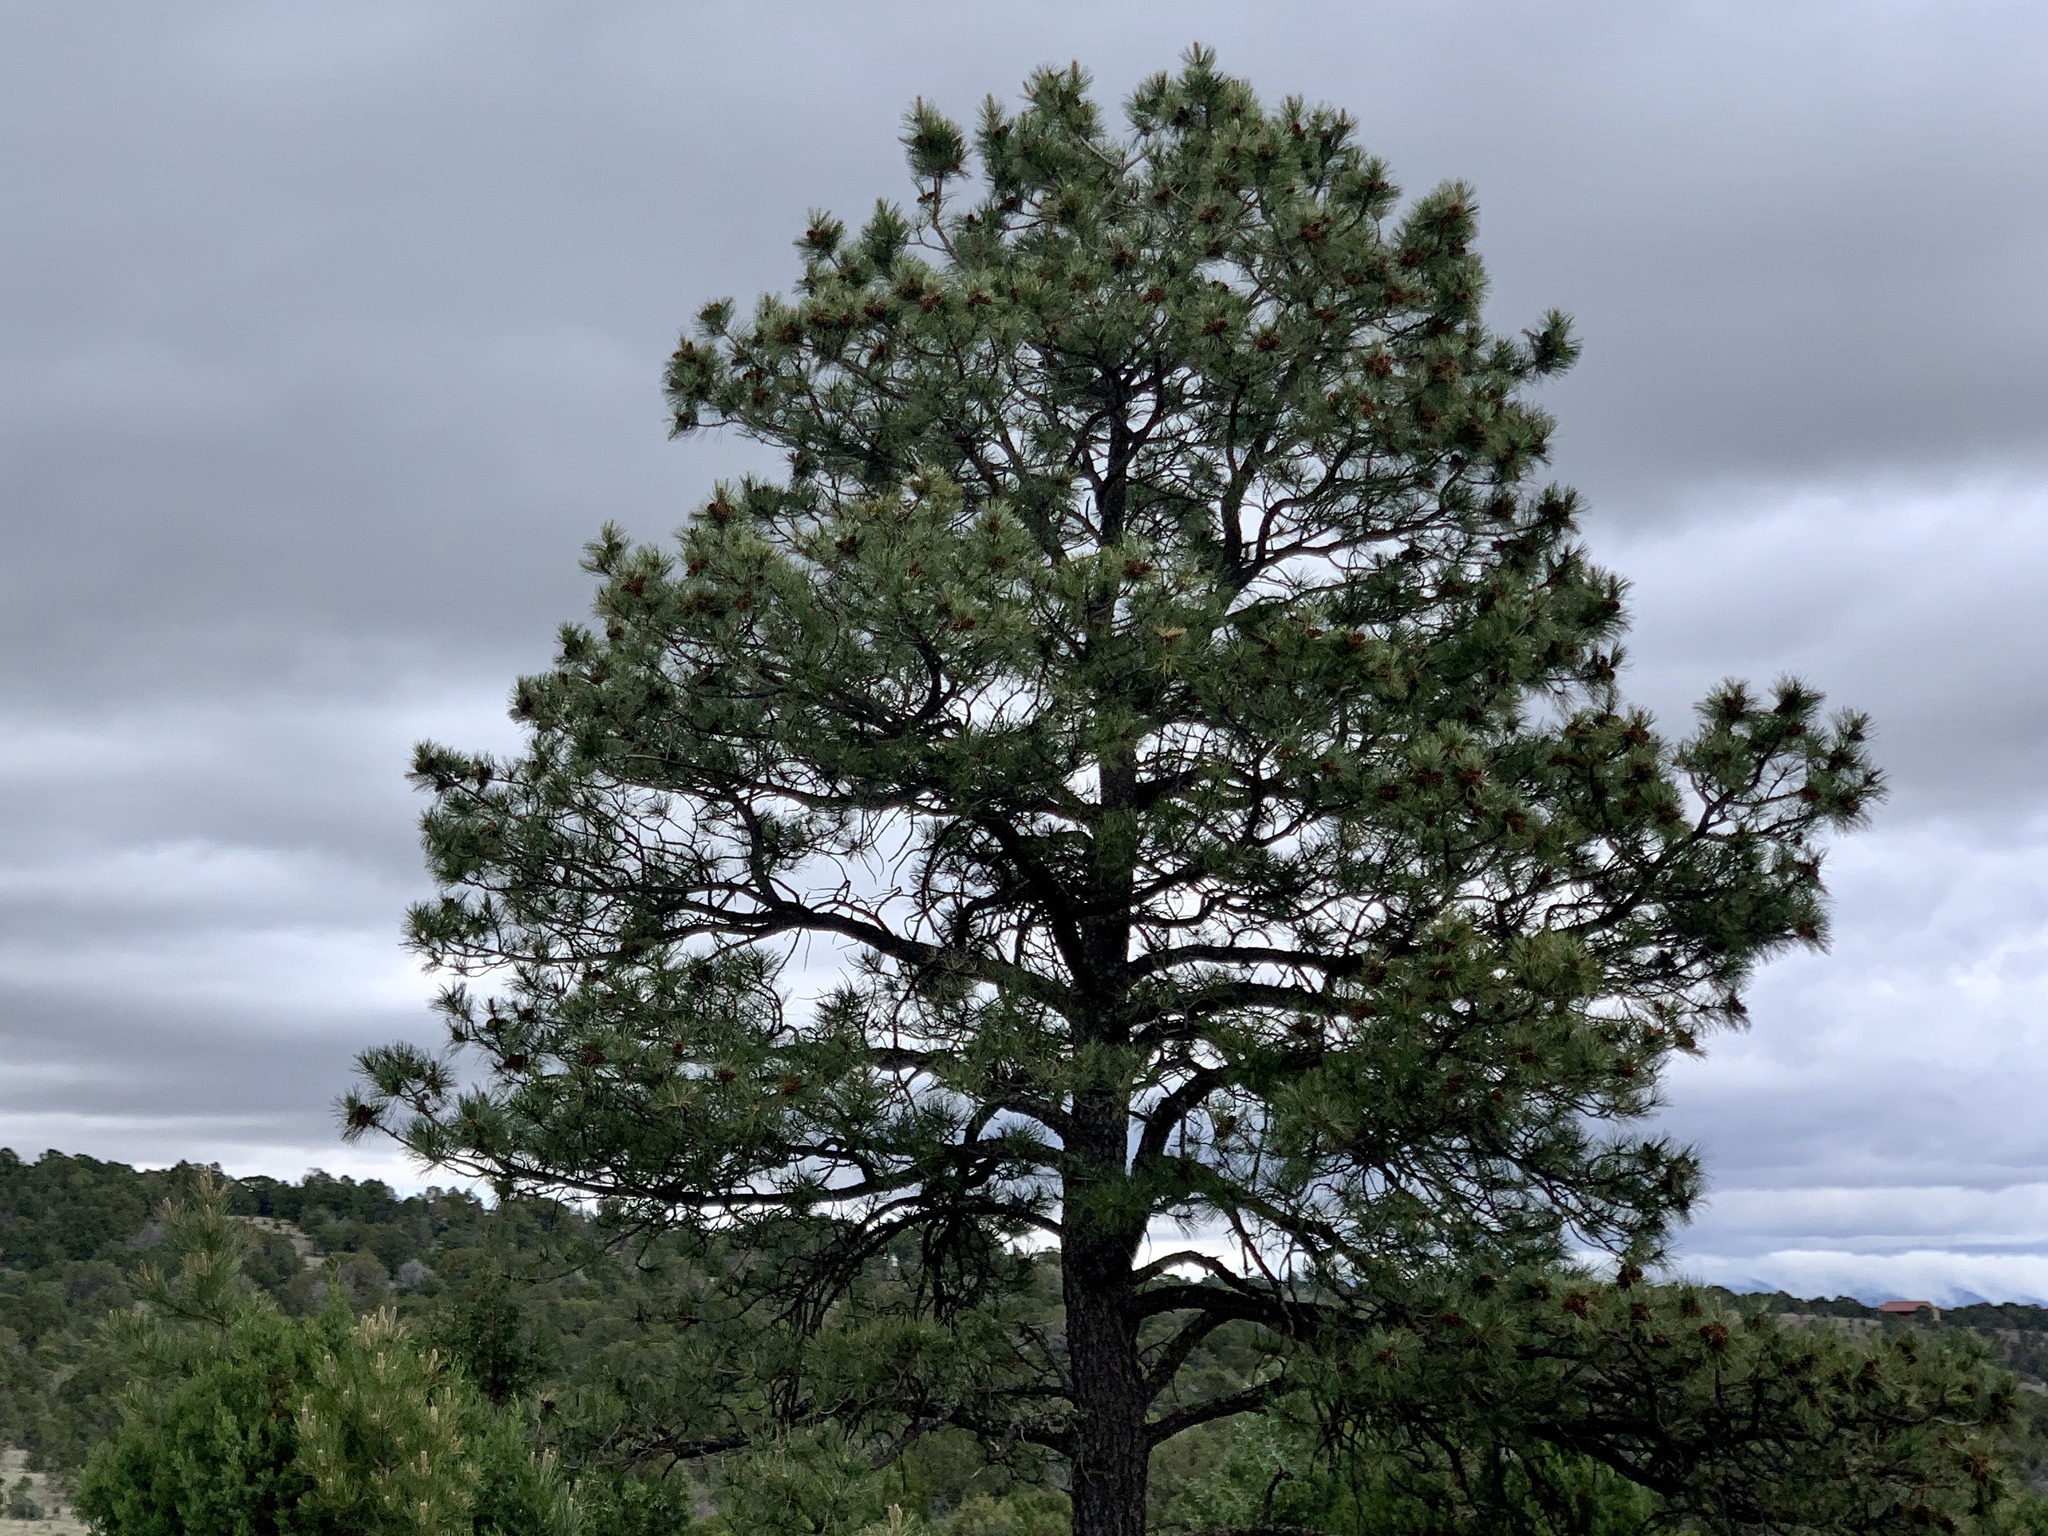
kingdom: Plantae
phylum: Tracheophyta
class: Pinopsida
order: Pinales
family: Pinaceae
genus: Pinus
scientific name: Pinus ponderosa
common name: Western yellow-pine
